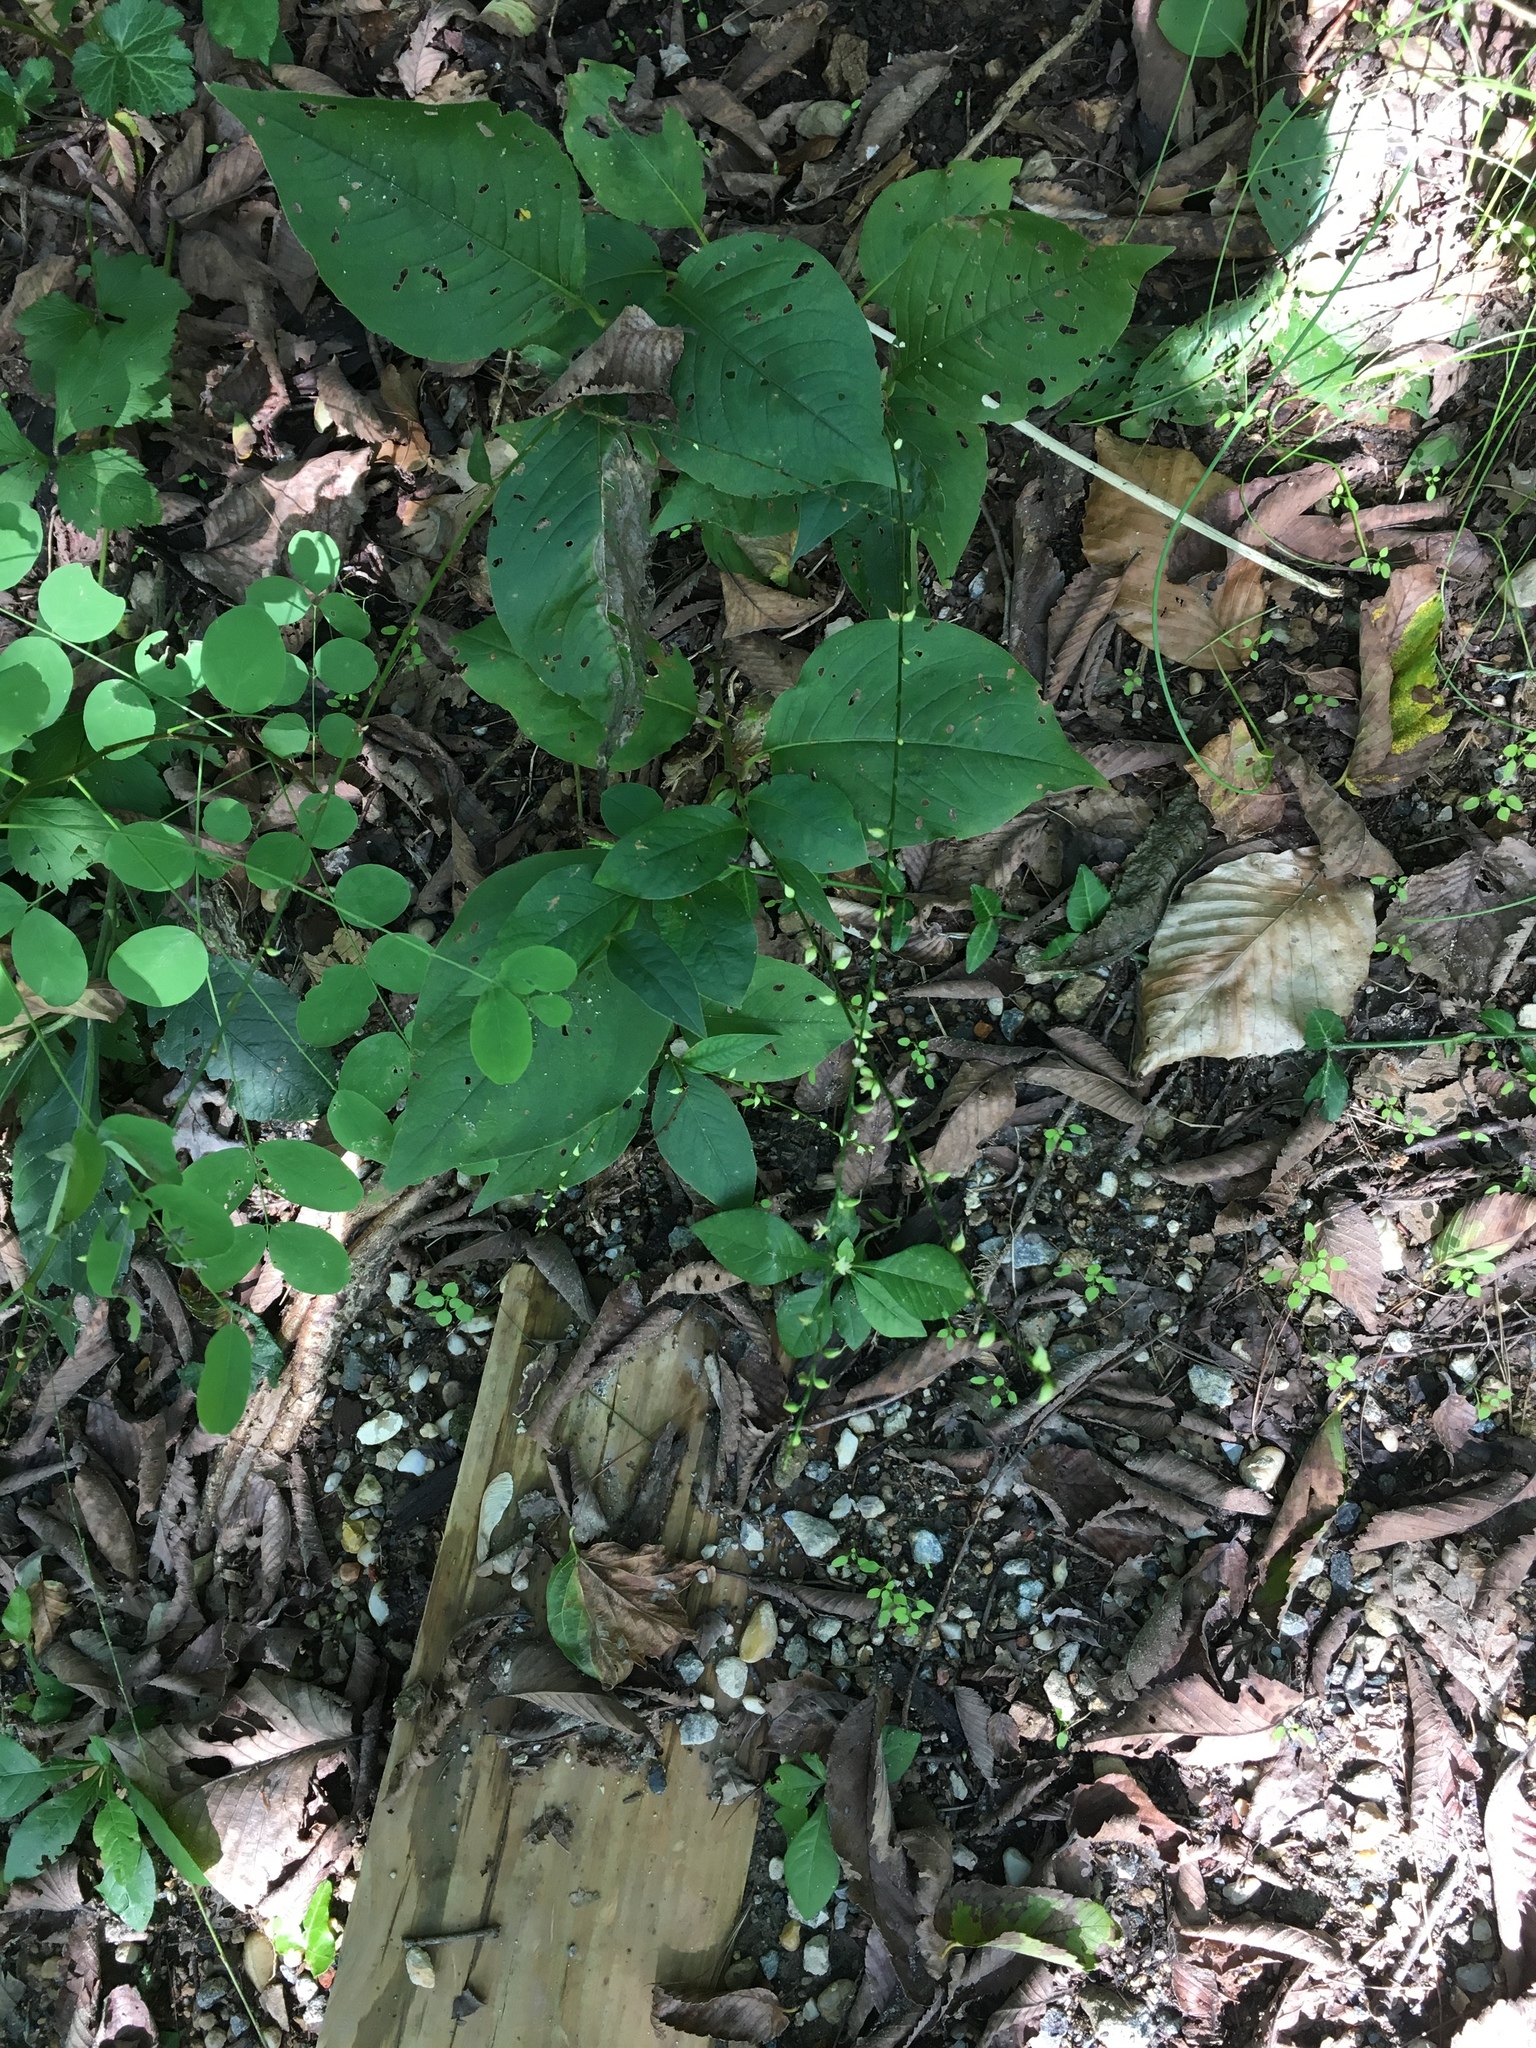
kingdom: Plantae
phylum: Tracheophyta
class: Magnoliopsida
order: Caryophyllales
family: Polygonaceae
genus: Persicaria
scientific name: Persicaria virginiana
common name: Jumpseed
